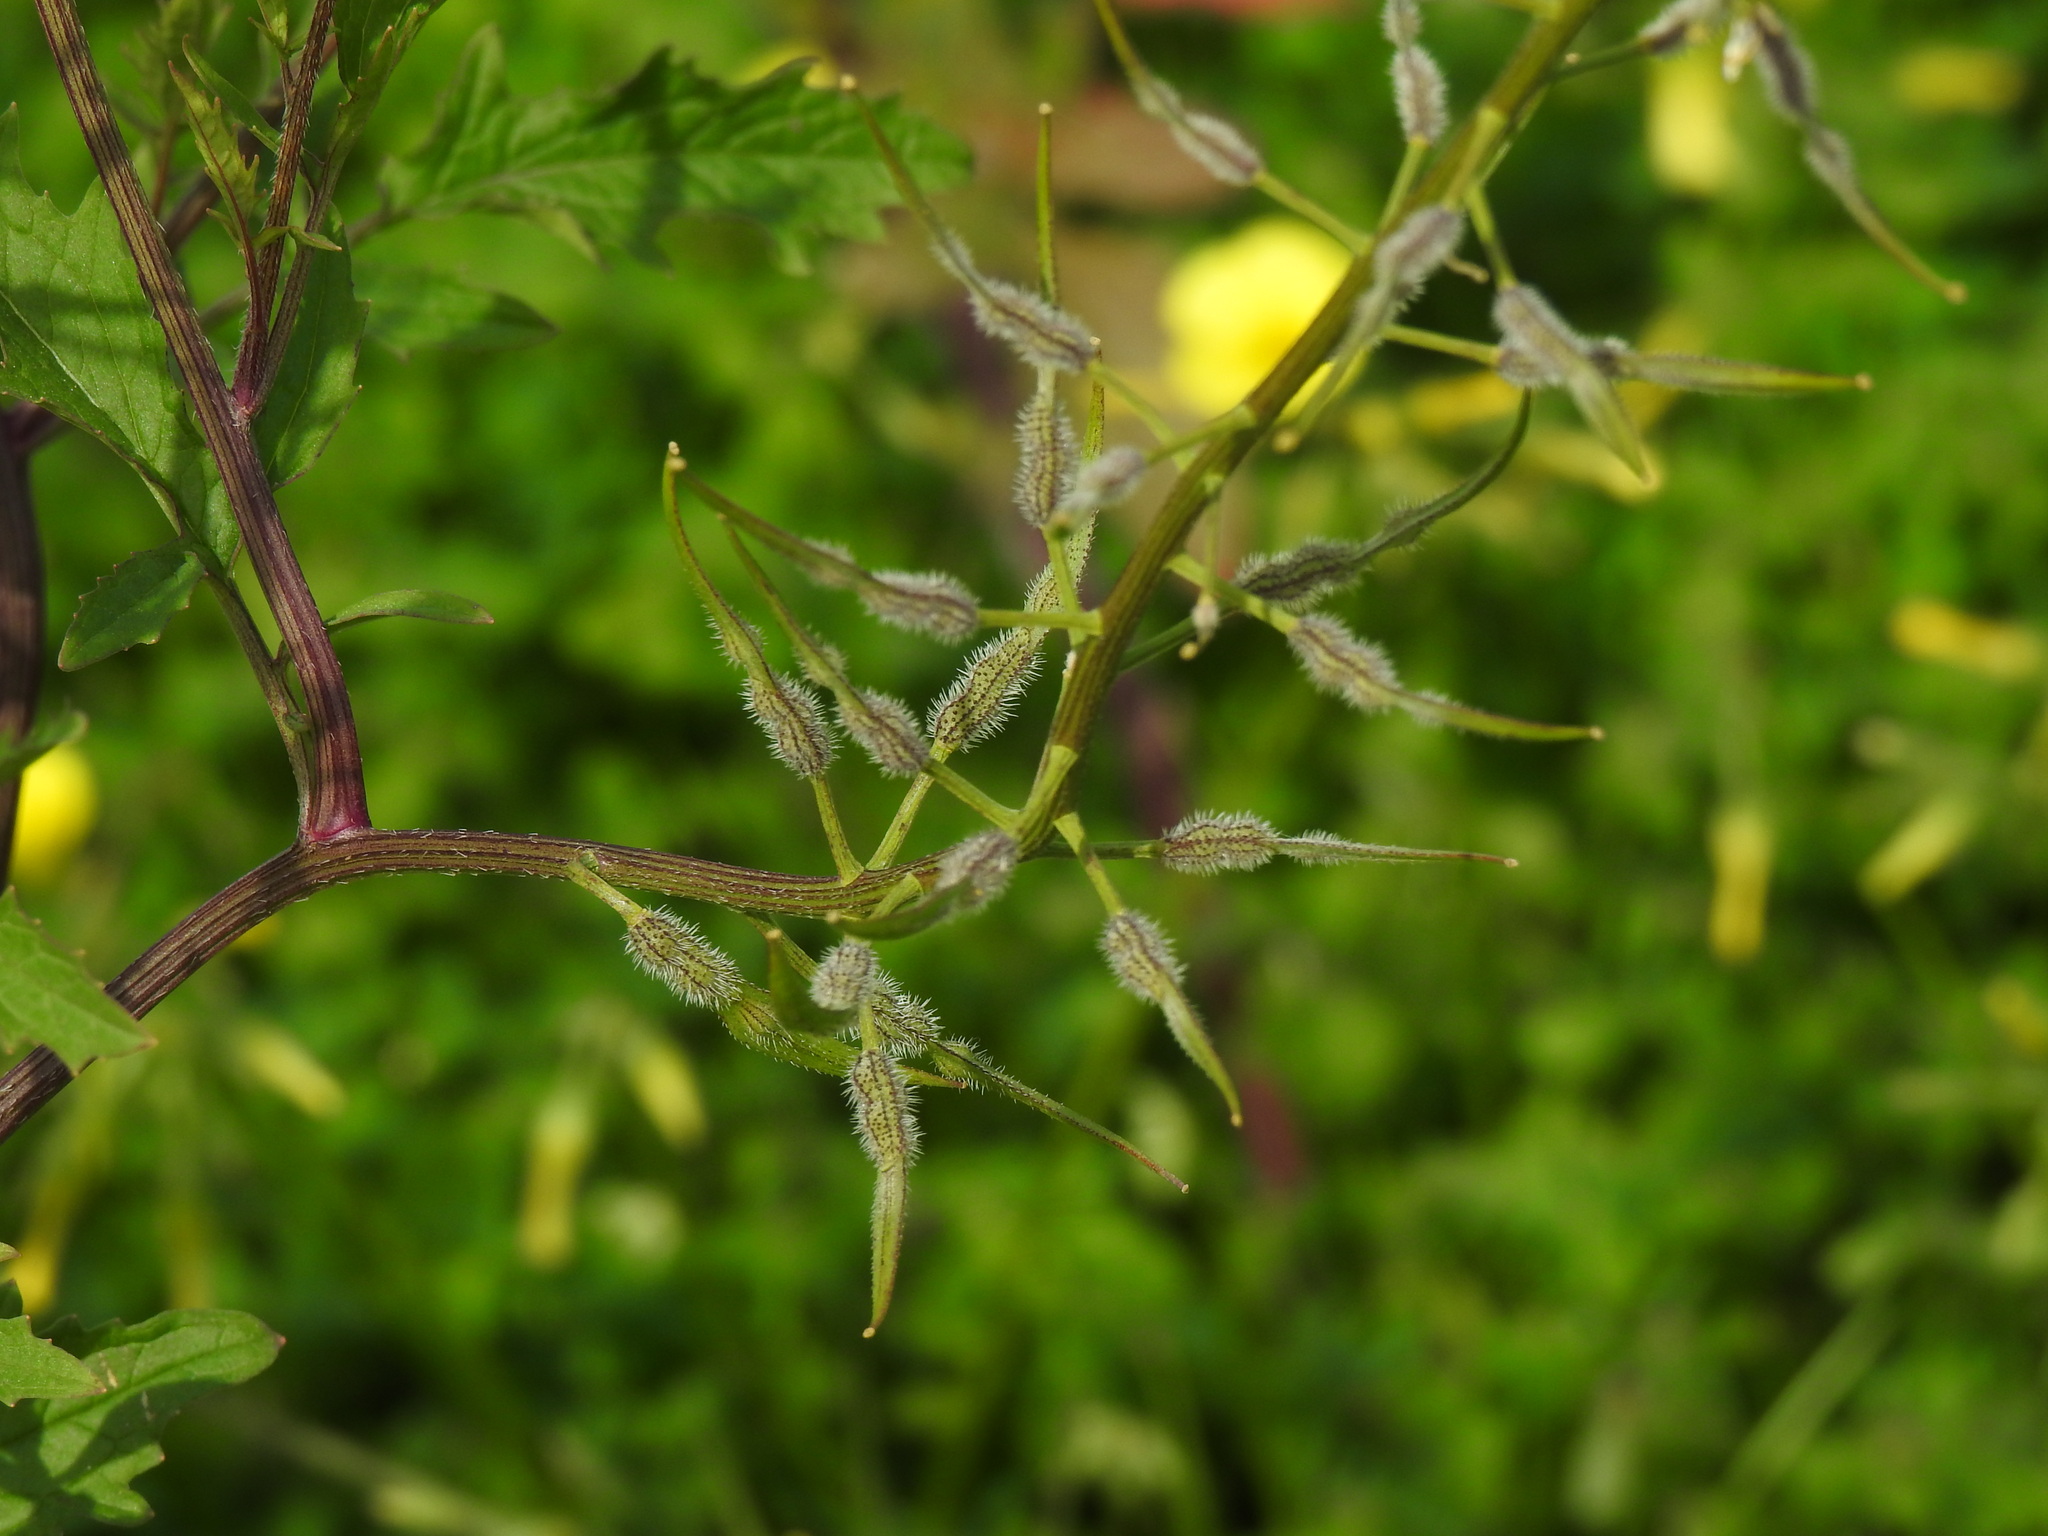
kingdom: Plantae
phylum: Tracheophyta
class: Magnoliopsida
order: Brassicales
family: Brassicaceae
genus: Sinapis
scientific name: Sinapis alba
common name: White mustard
